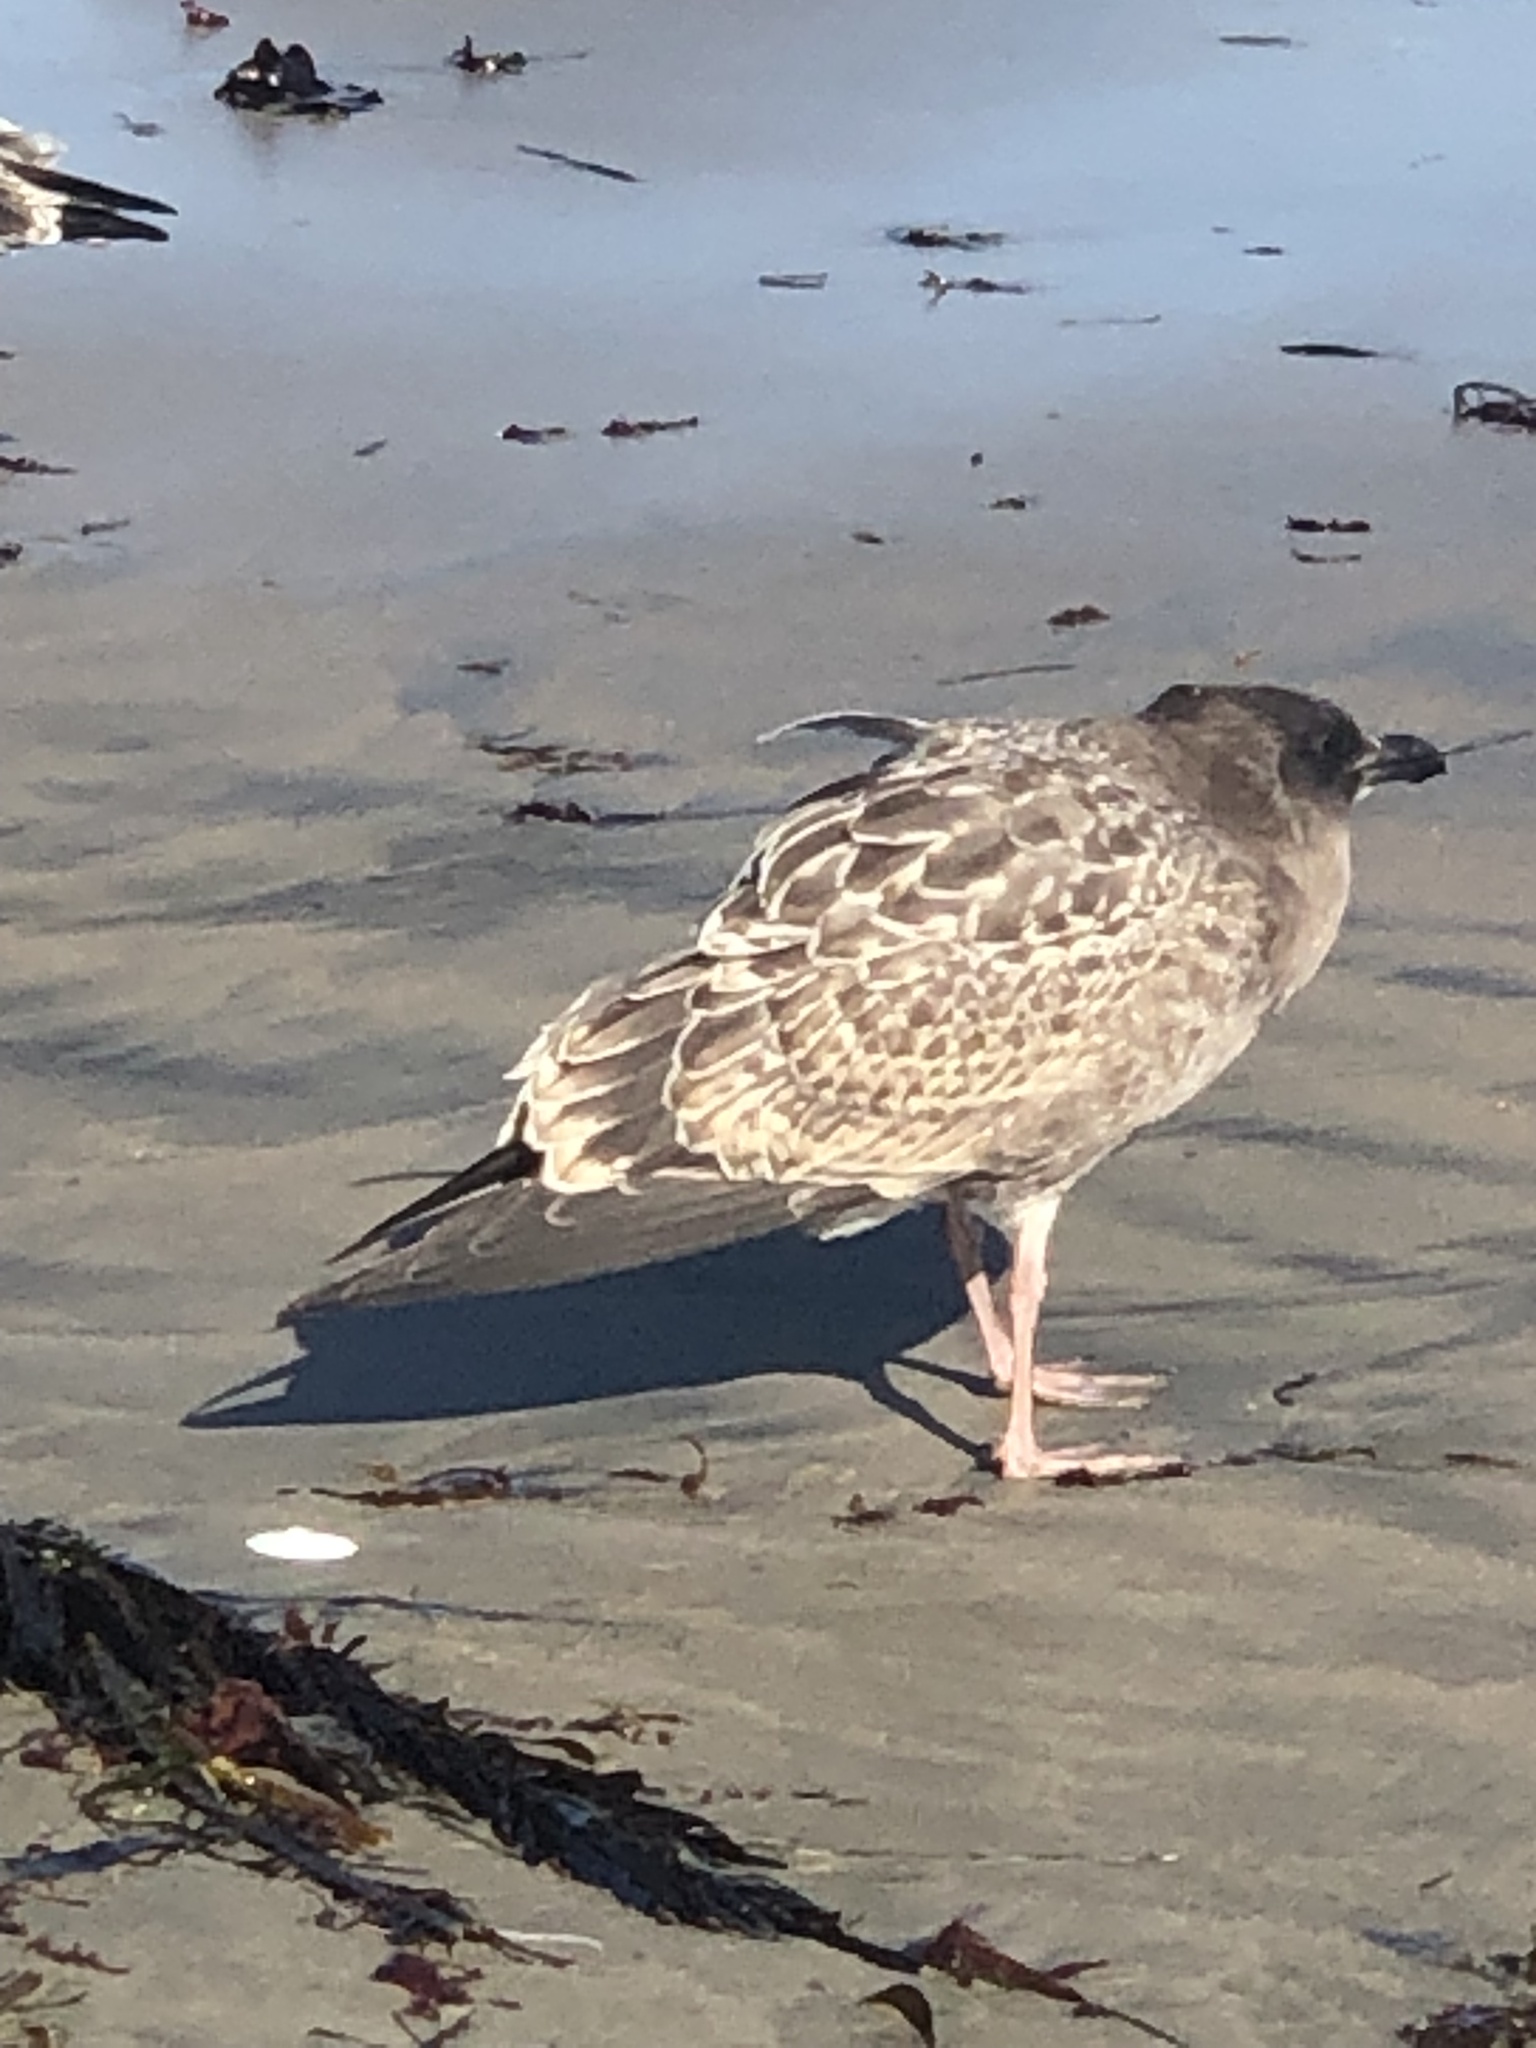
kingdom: Animalia
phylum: Chordata
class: Aves
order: Charadriiformes
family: Laridae
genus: Larus
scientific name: Larus occidentalis
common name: Western gull
